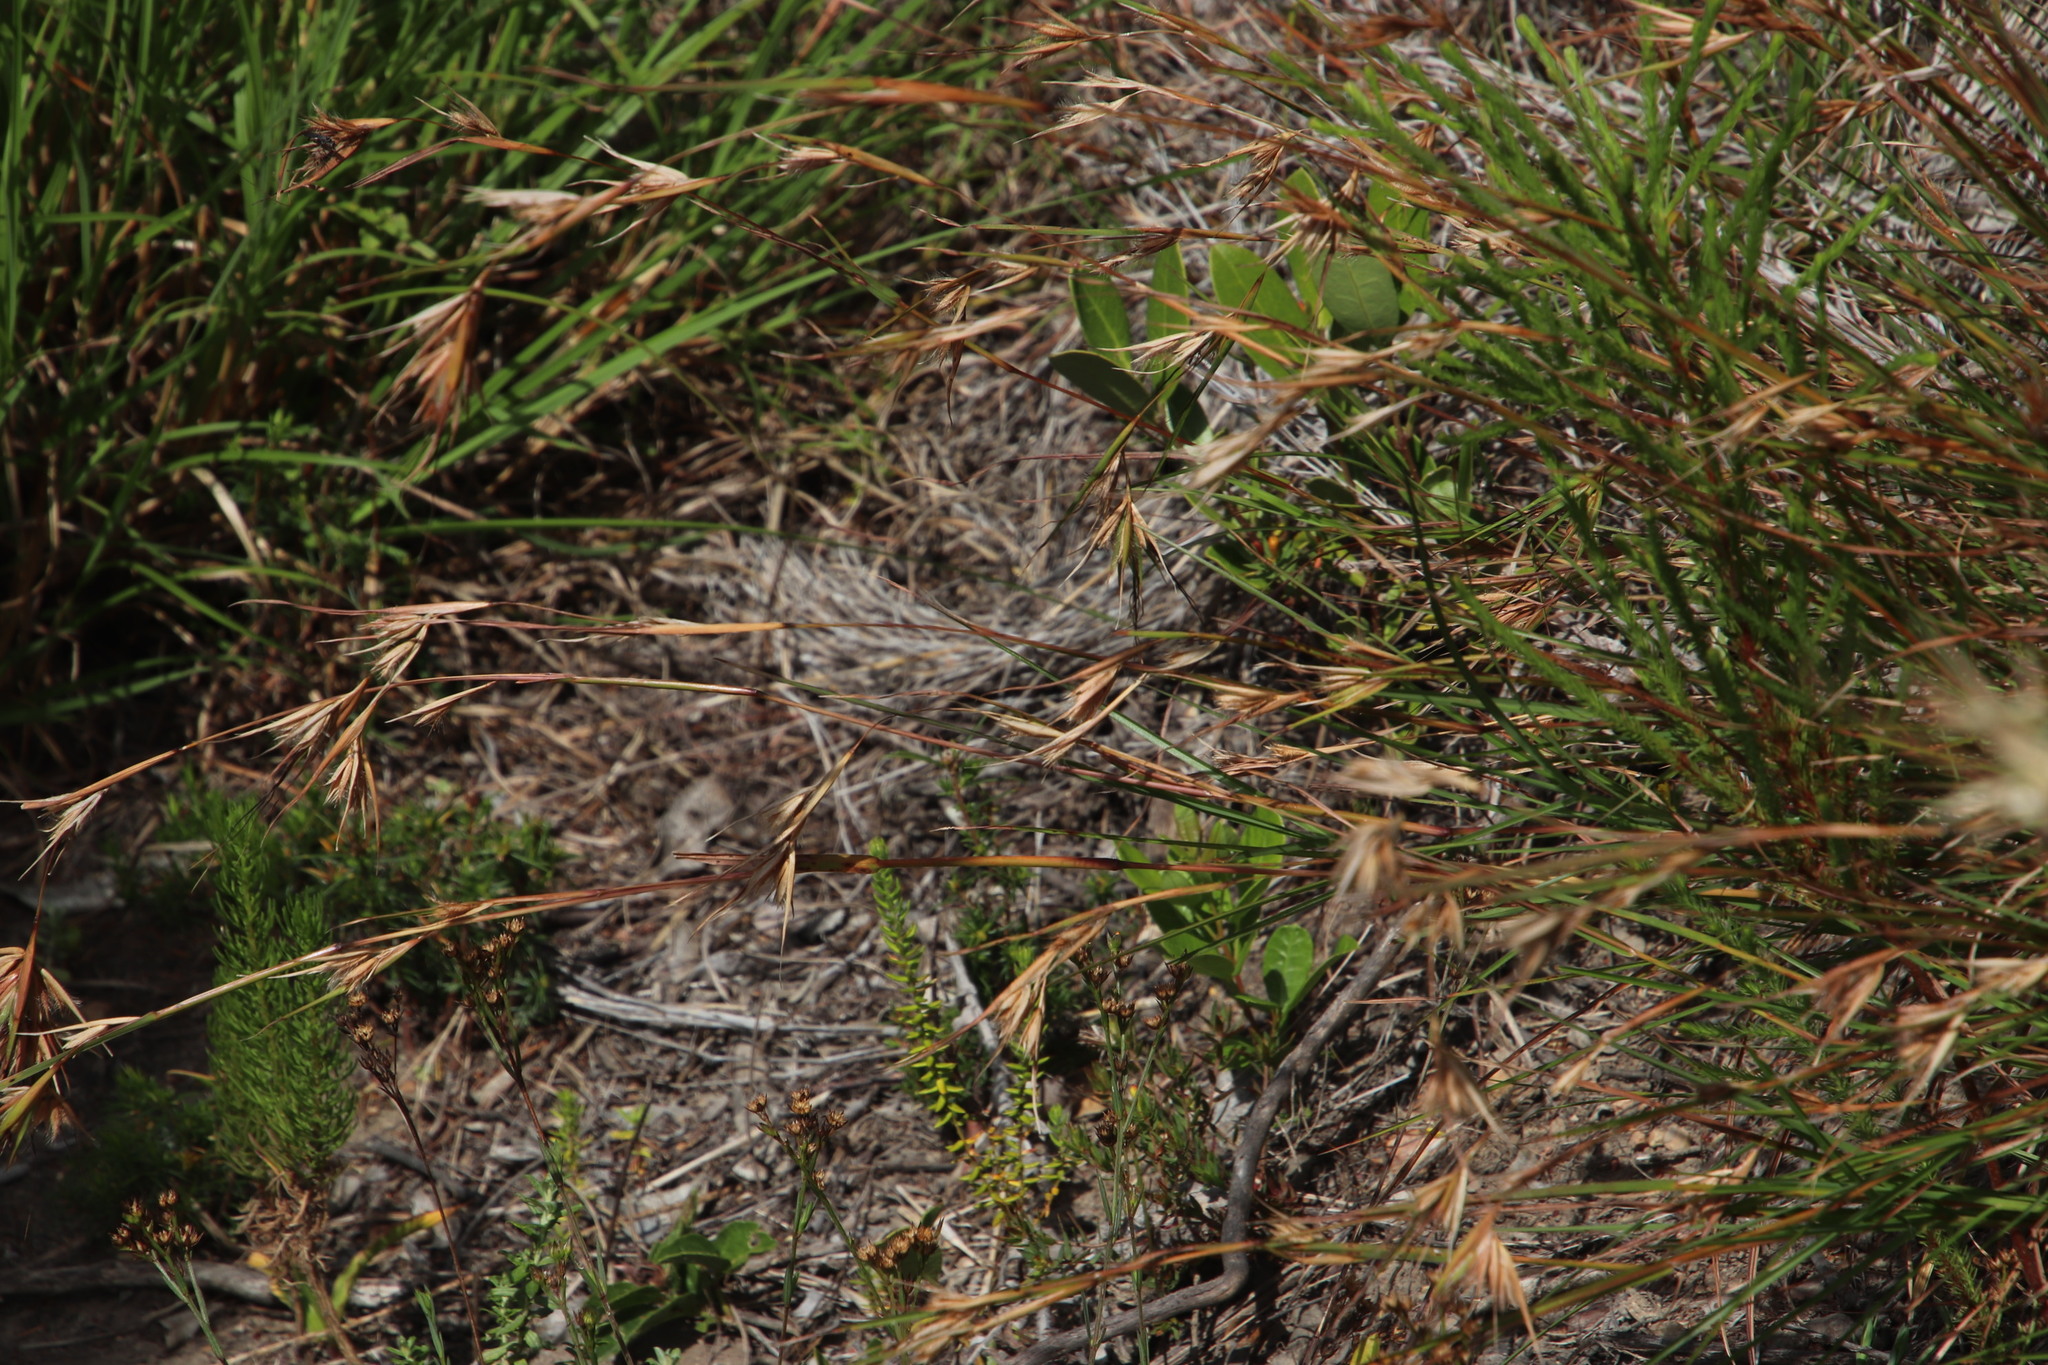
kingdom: Plantae
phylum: Tracheophyta
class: Liliopsida
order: Poales
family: Poaceae
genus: Themeda
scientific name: Themeda triandra
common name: Kangaroo grass
